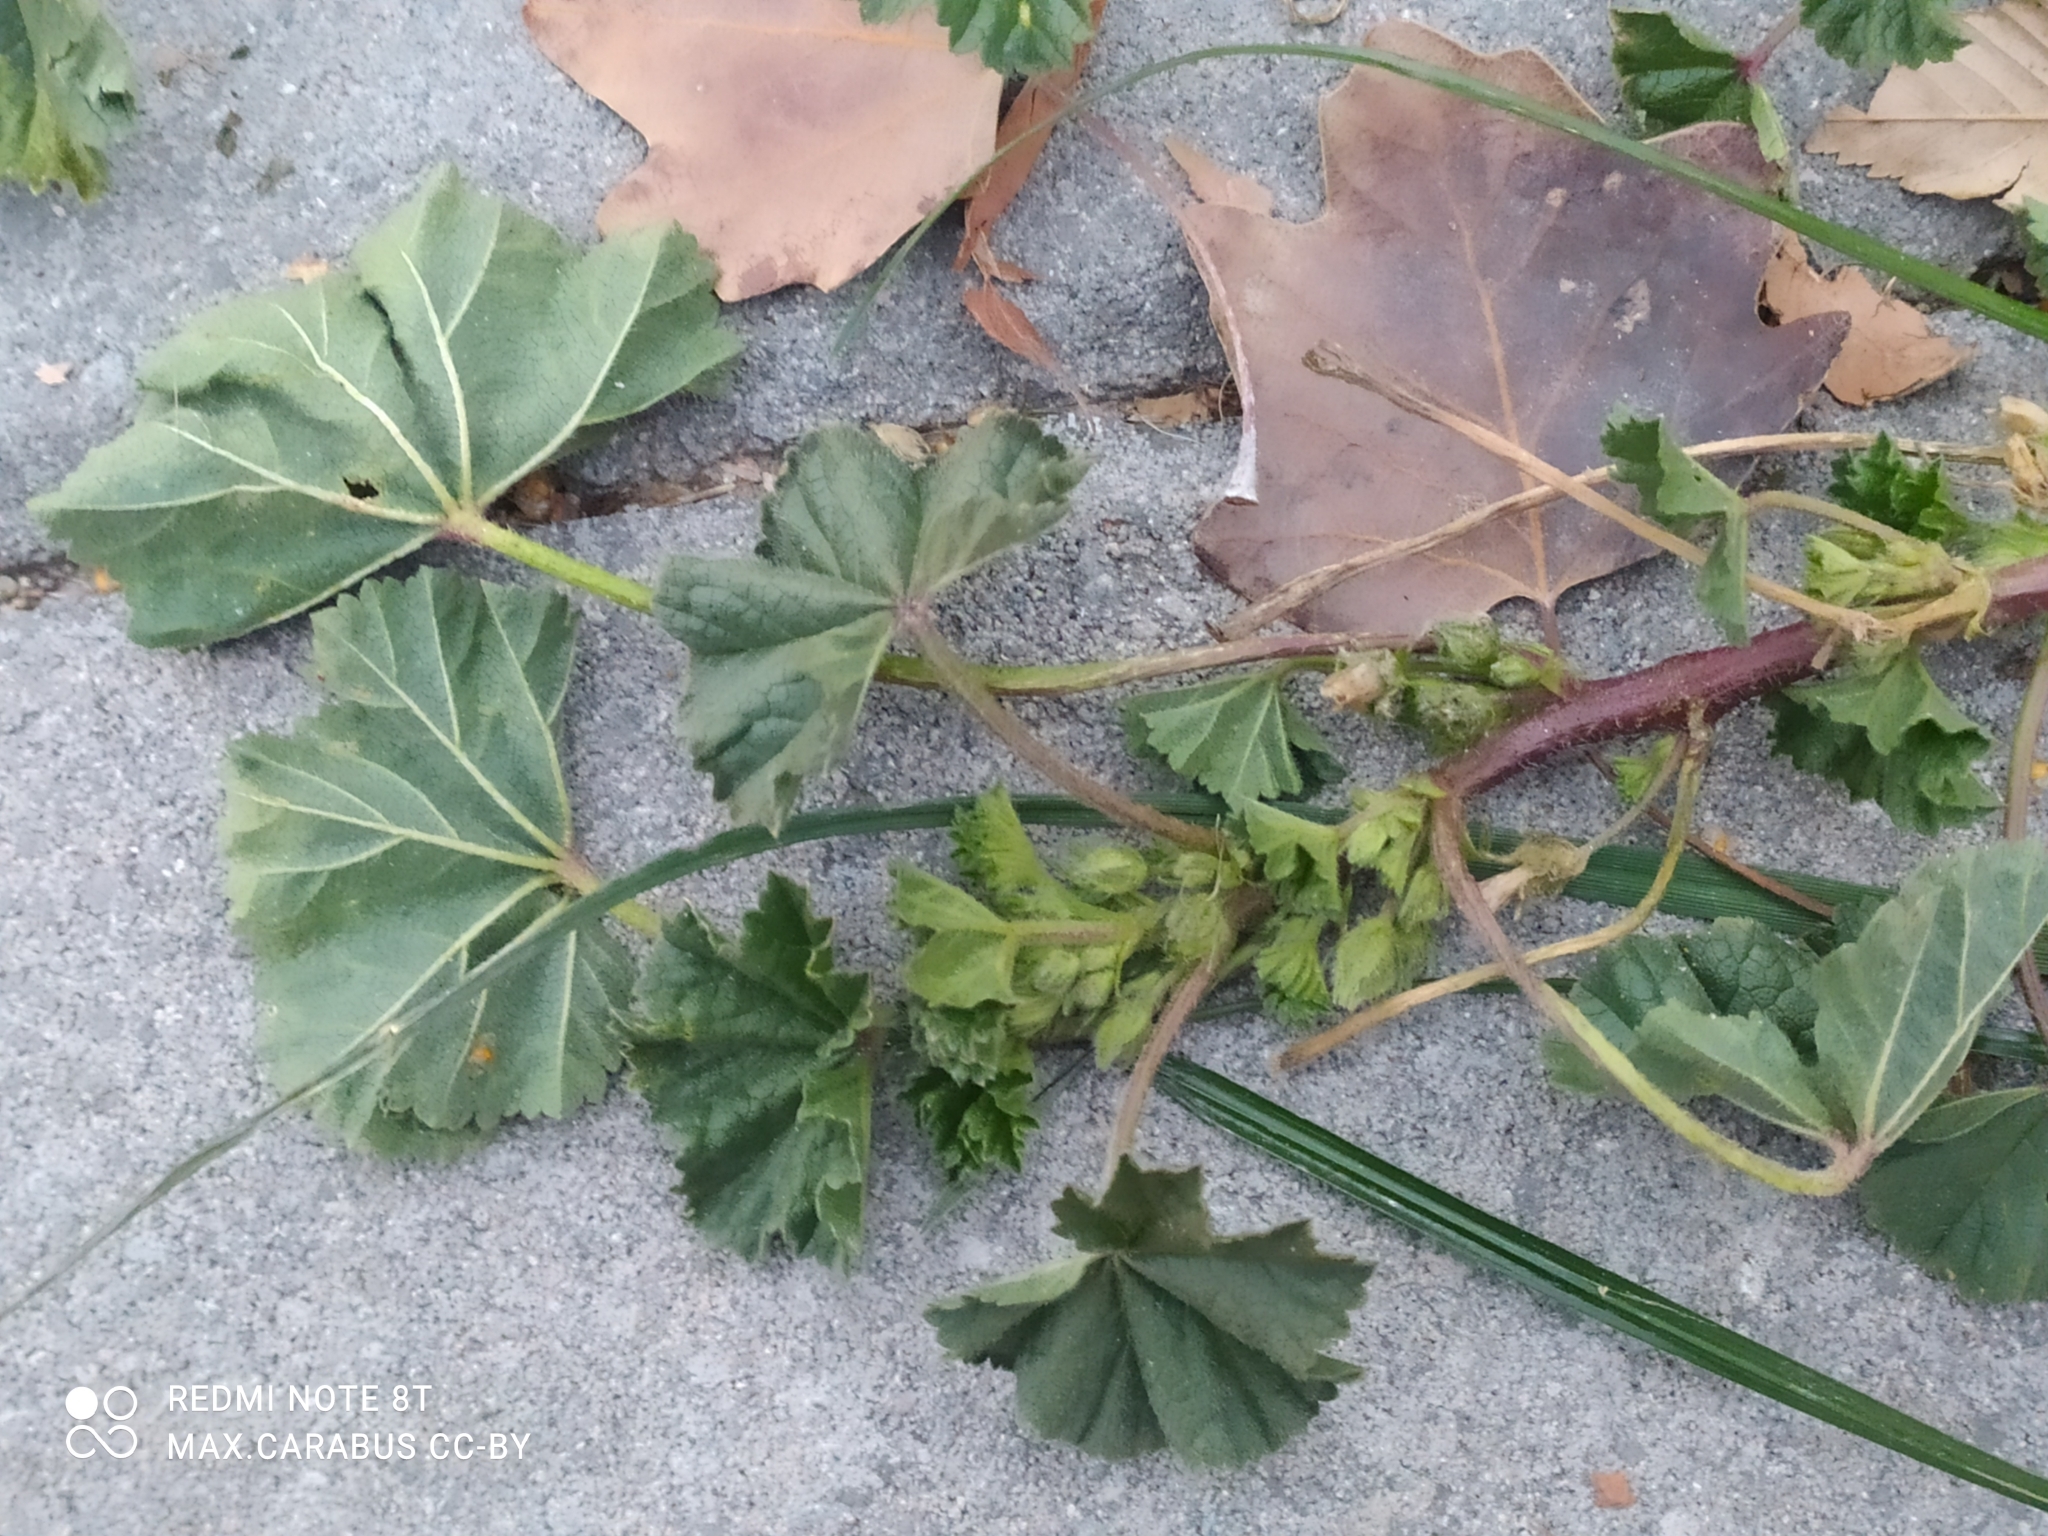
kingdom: Plantae
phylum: Tracheophyta
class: Magnoliopsida
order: Malvales
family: Malvaceae
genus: Malva
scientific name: Malva neglecta
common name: Common mallow
